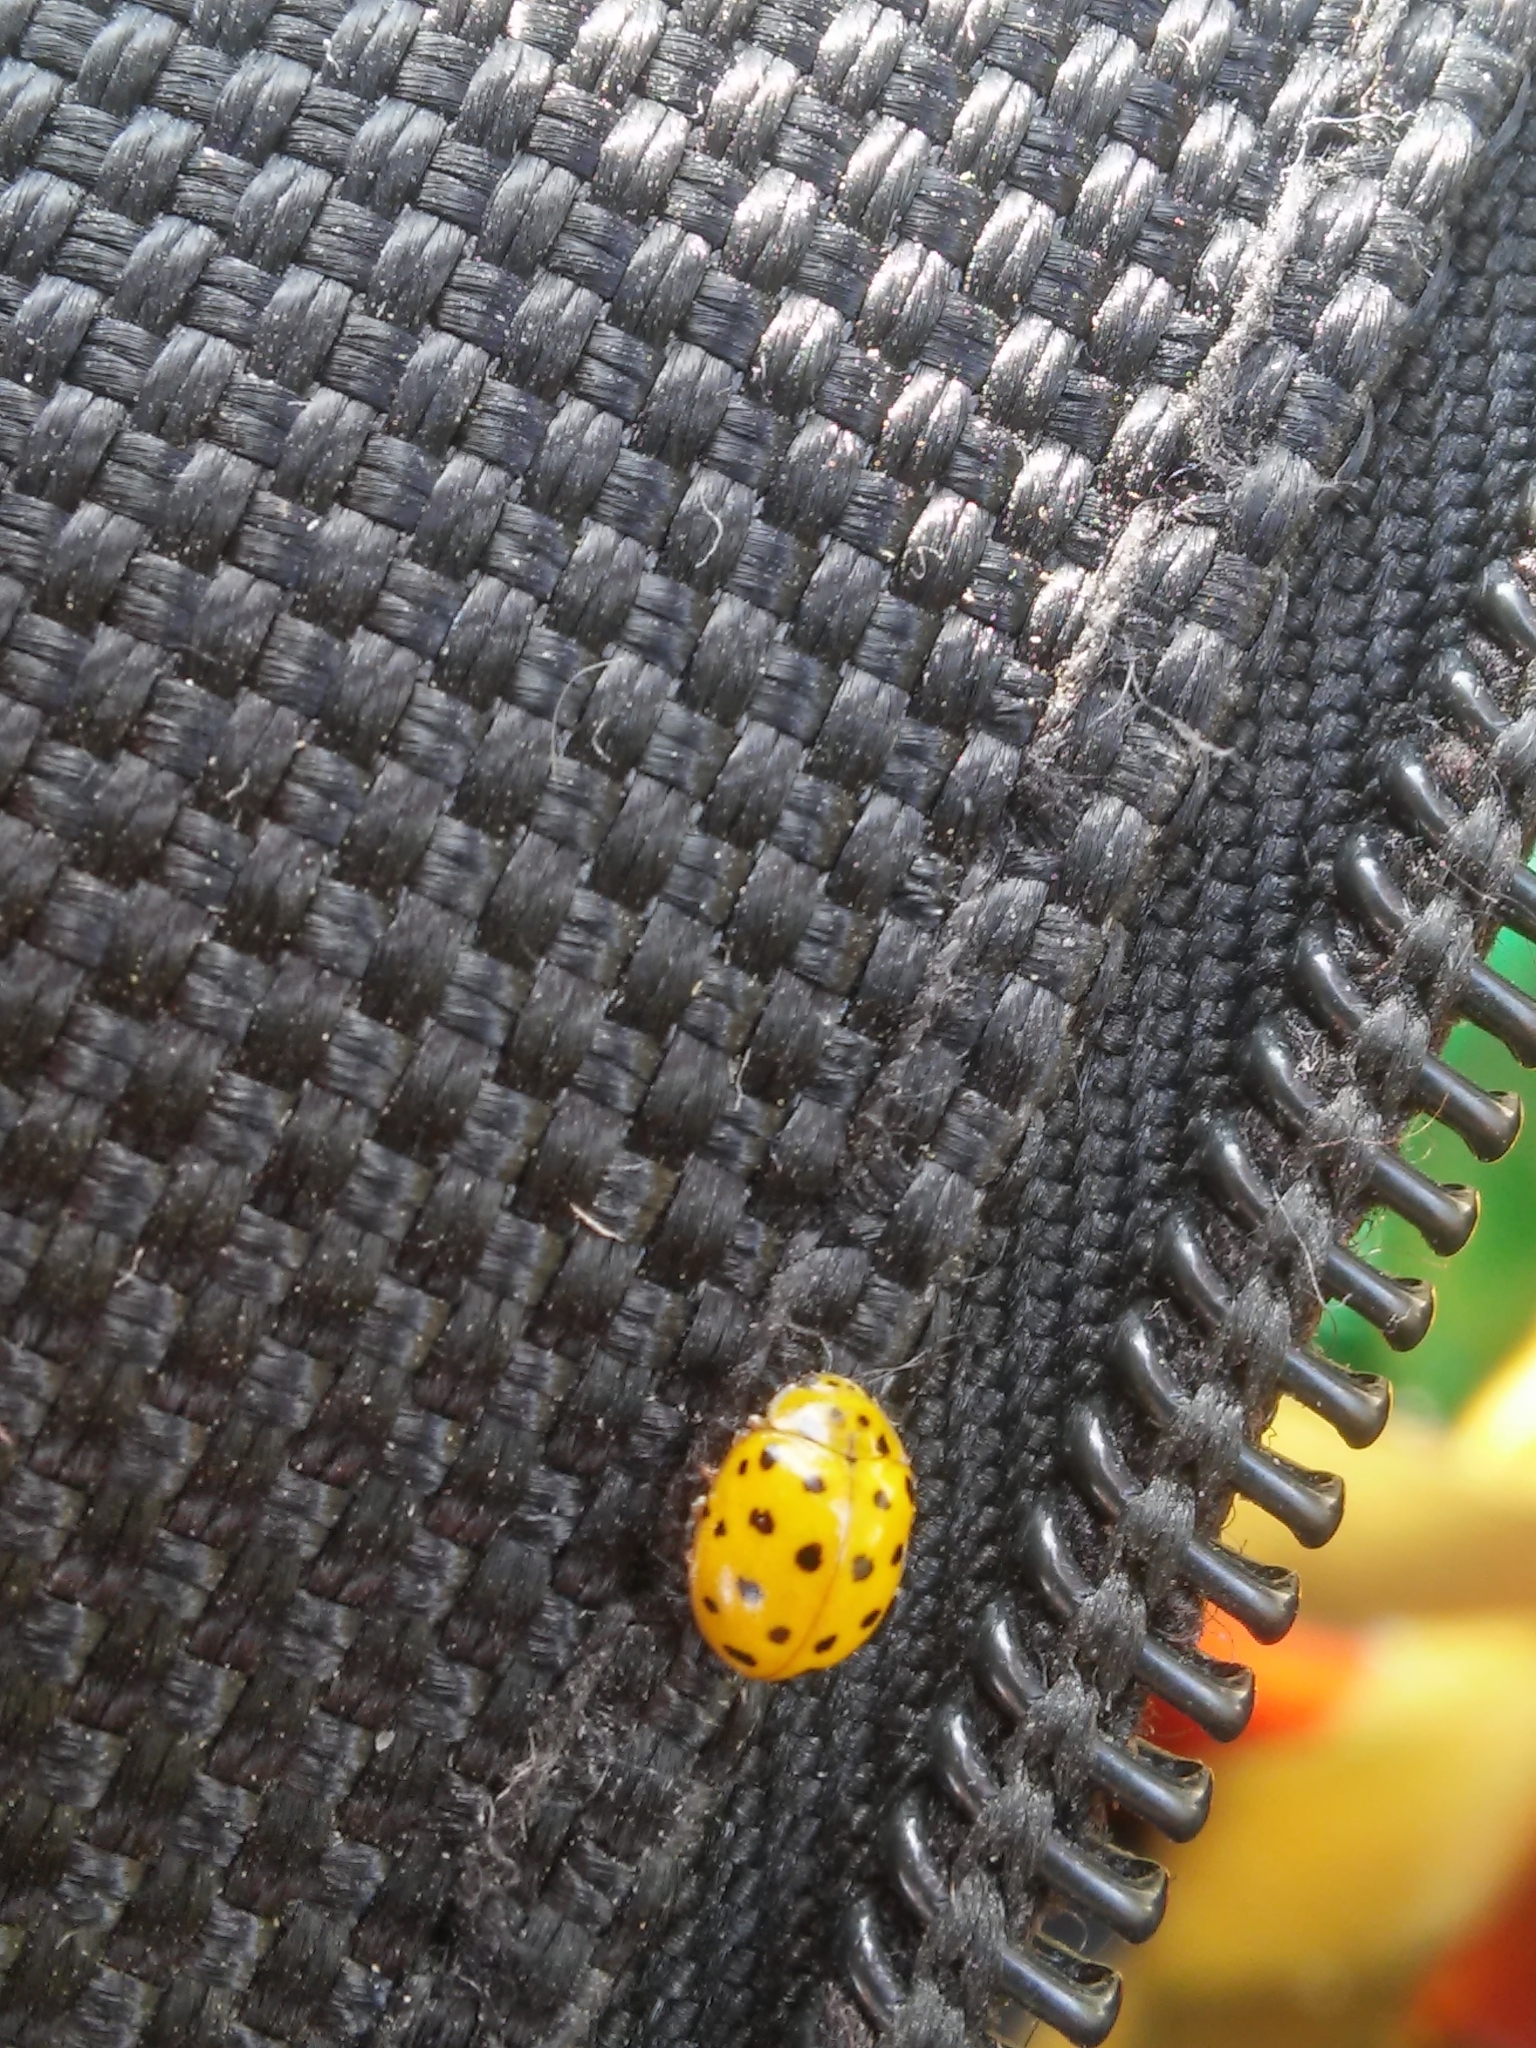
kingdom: Animalia
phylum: Arthropoda
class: Insecta
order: Coleoptera
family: Coccinellidae
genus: Psyllobora
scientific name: Psyllobora vigintiduopunctata
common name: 22-spot ladybird
